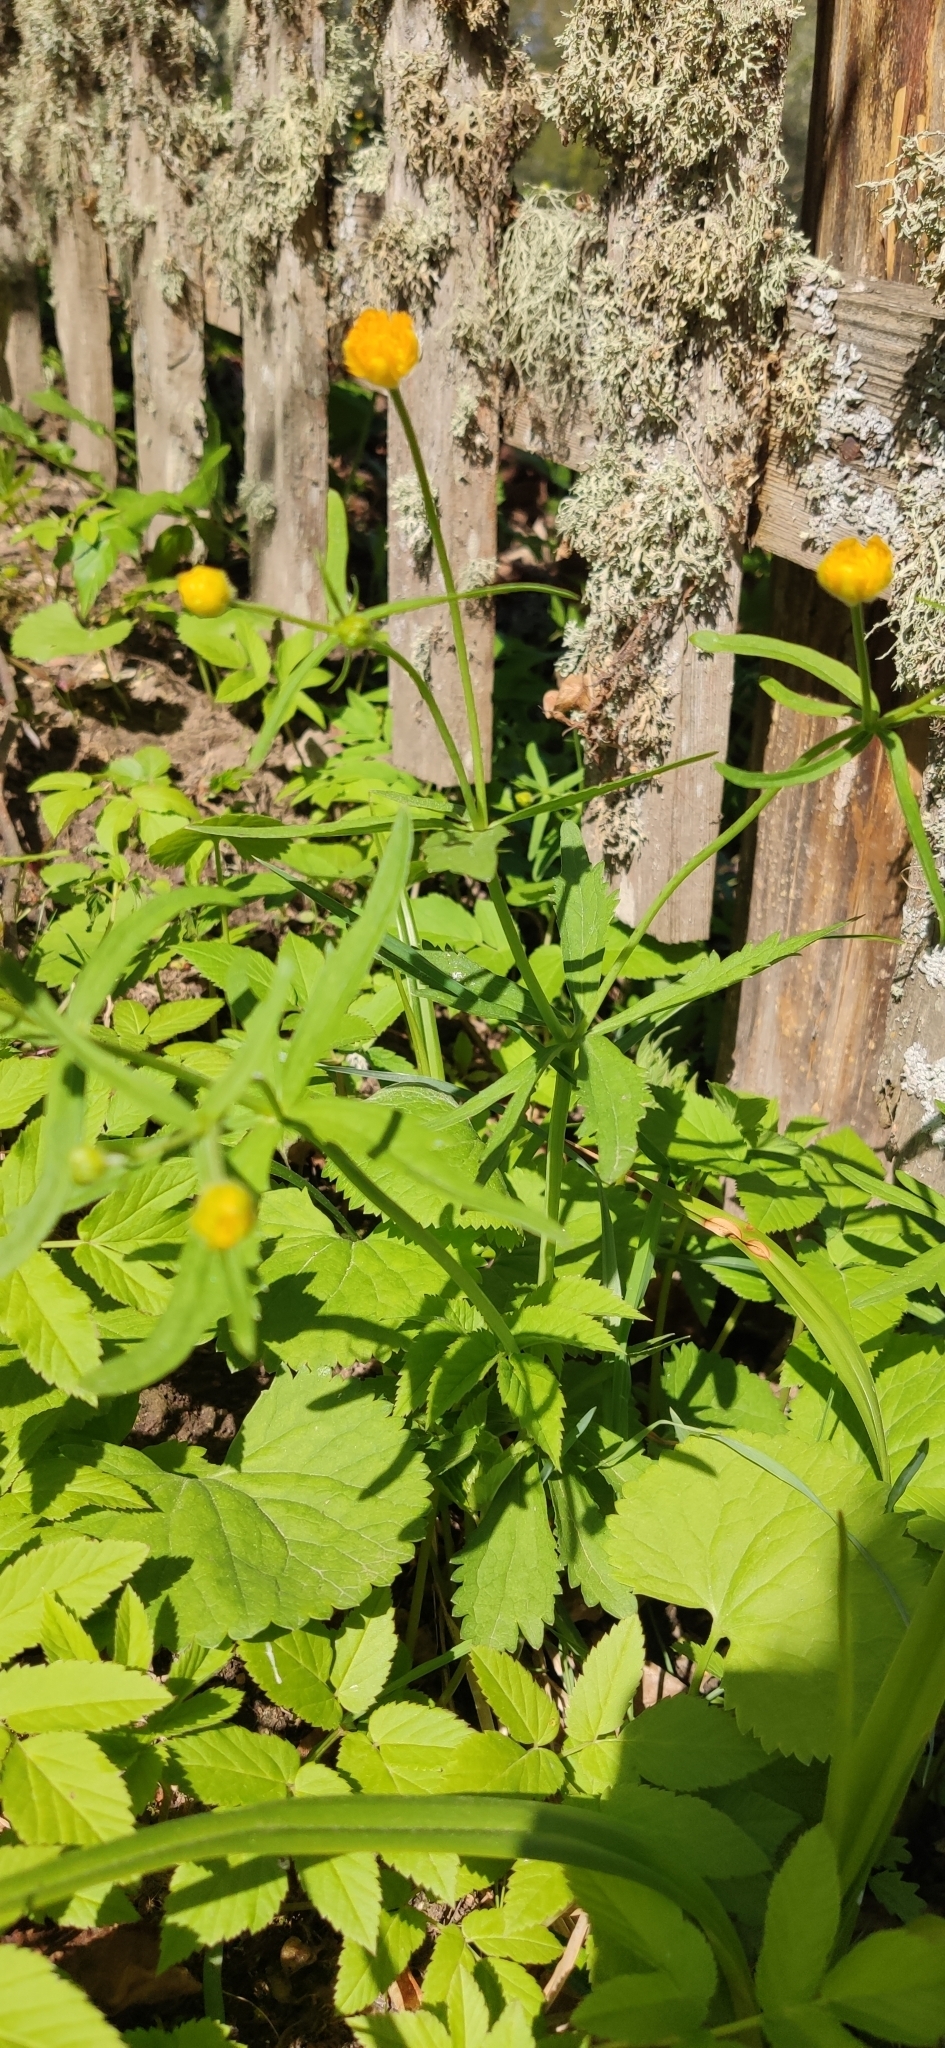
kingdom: Plantae
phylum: Tracheophyta
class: Magnoliopsida
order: Ranunculales
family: Ranunculaceae
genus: Ranunculus
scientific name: Ranunculus cassubicus
